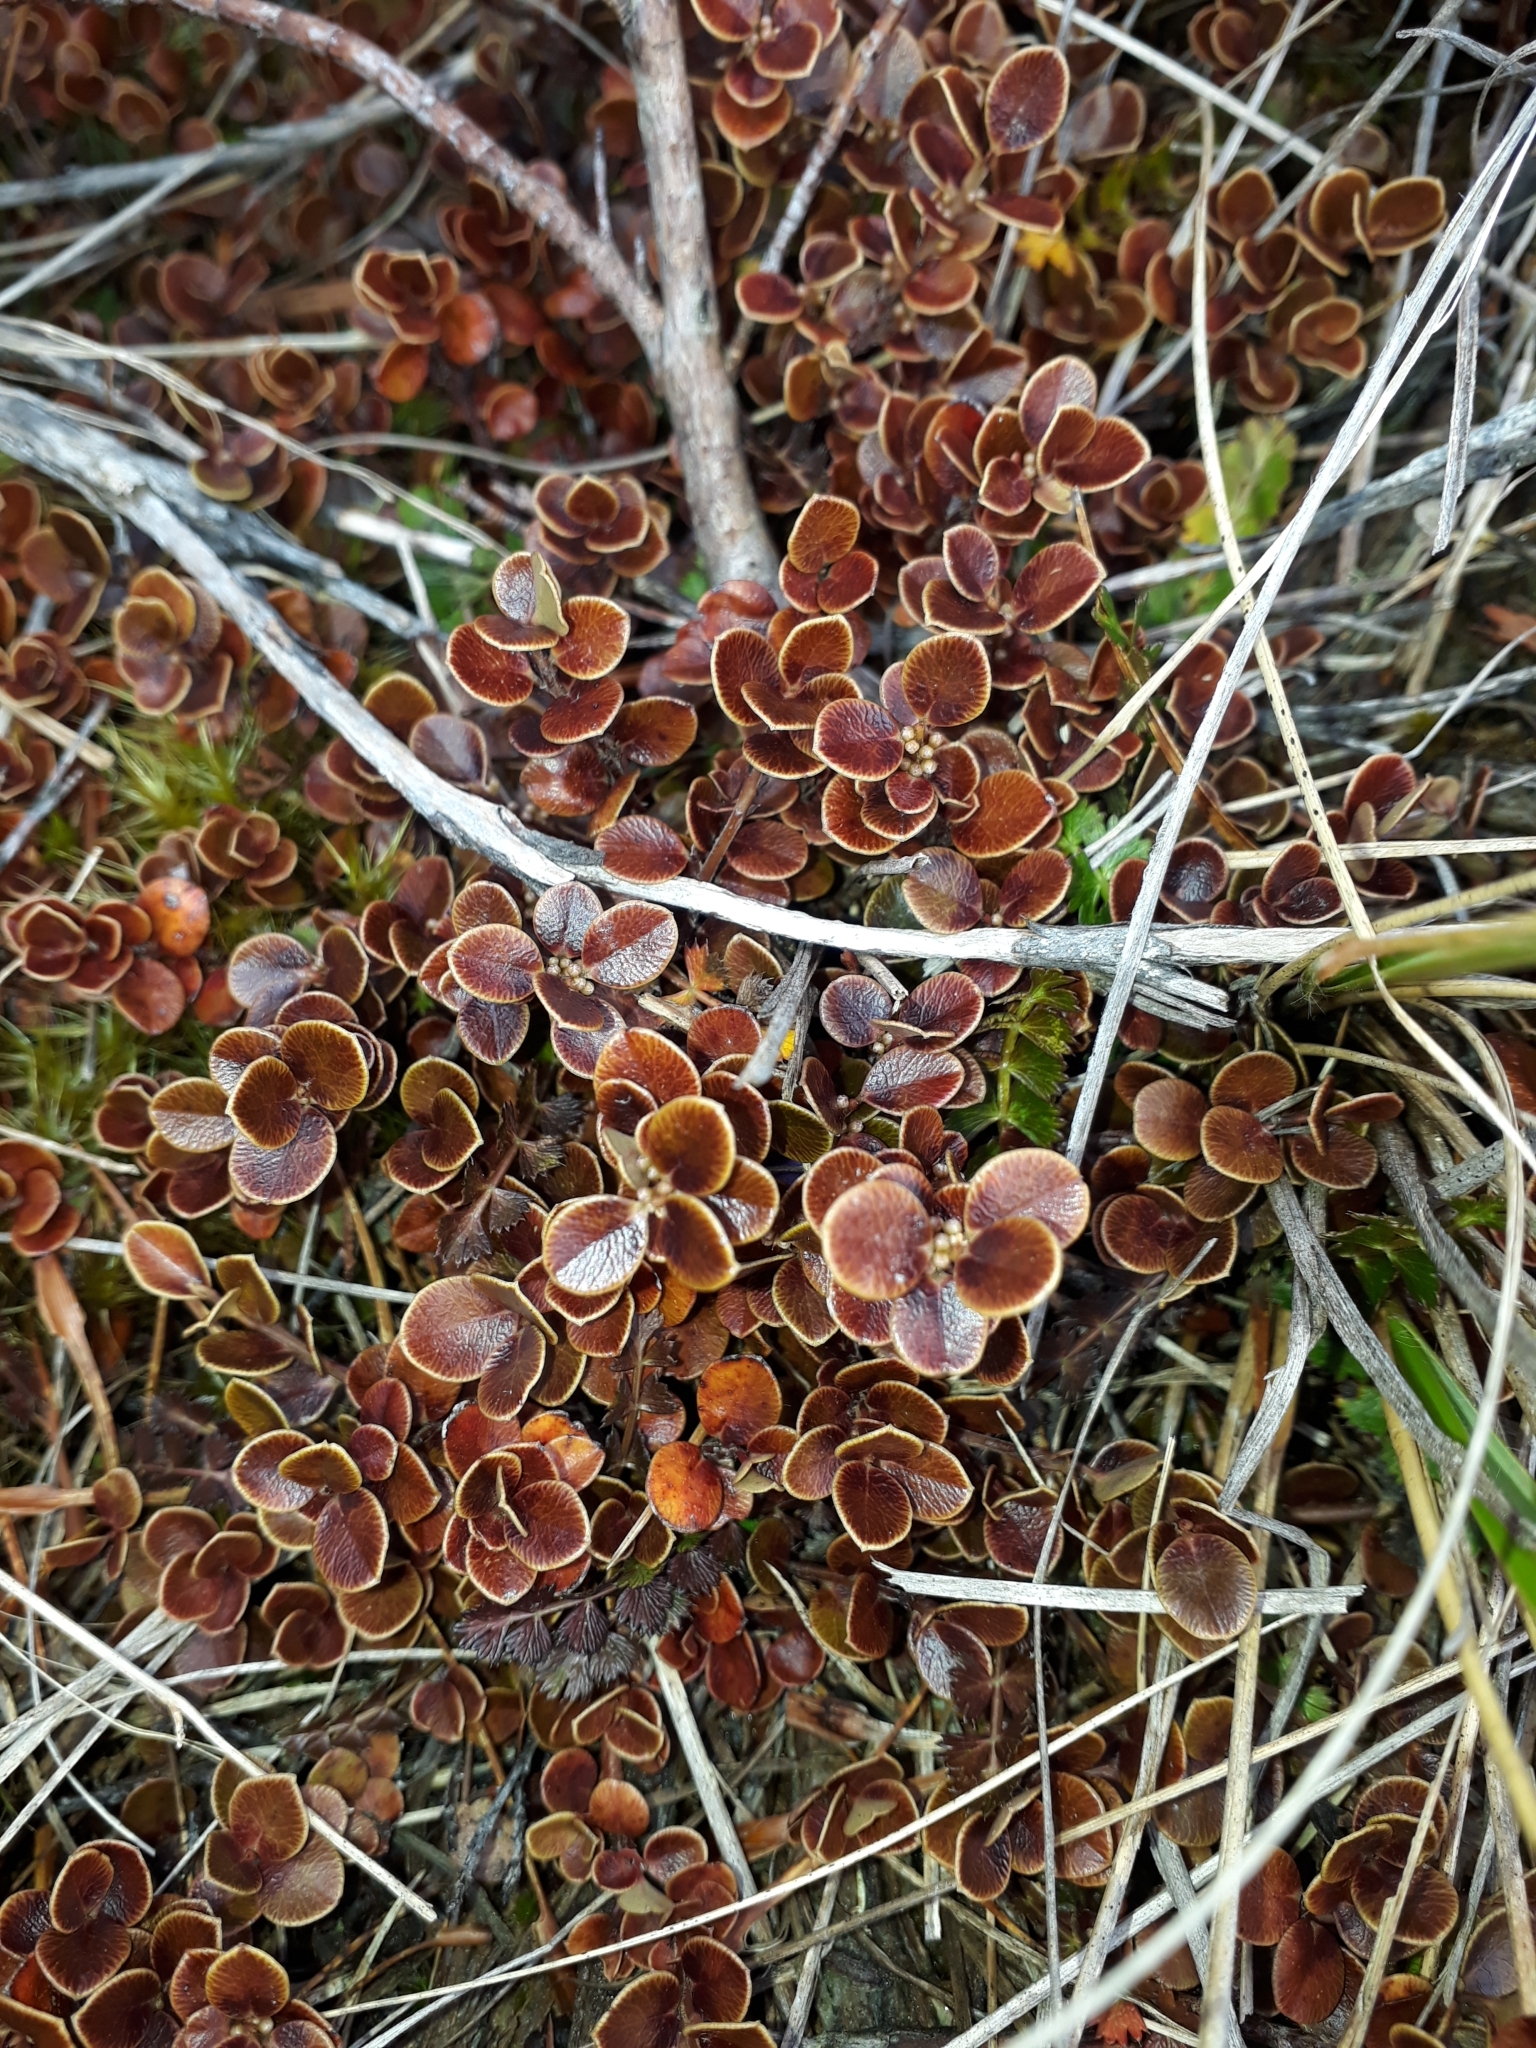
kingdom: Plantae
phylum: Tracheophyta
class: Magnoliopsida
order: Ericales
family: Primulaceae
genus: Myrsine
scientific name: Myrsine nummularia
